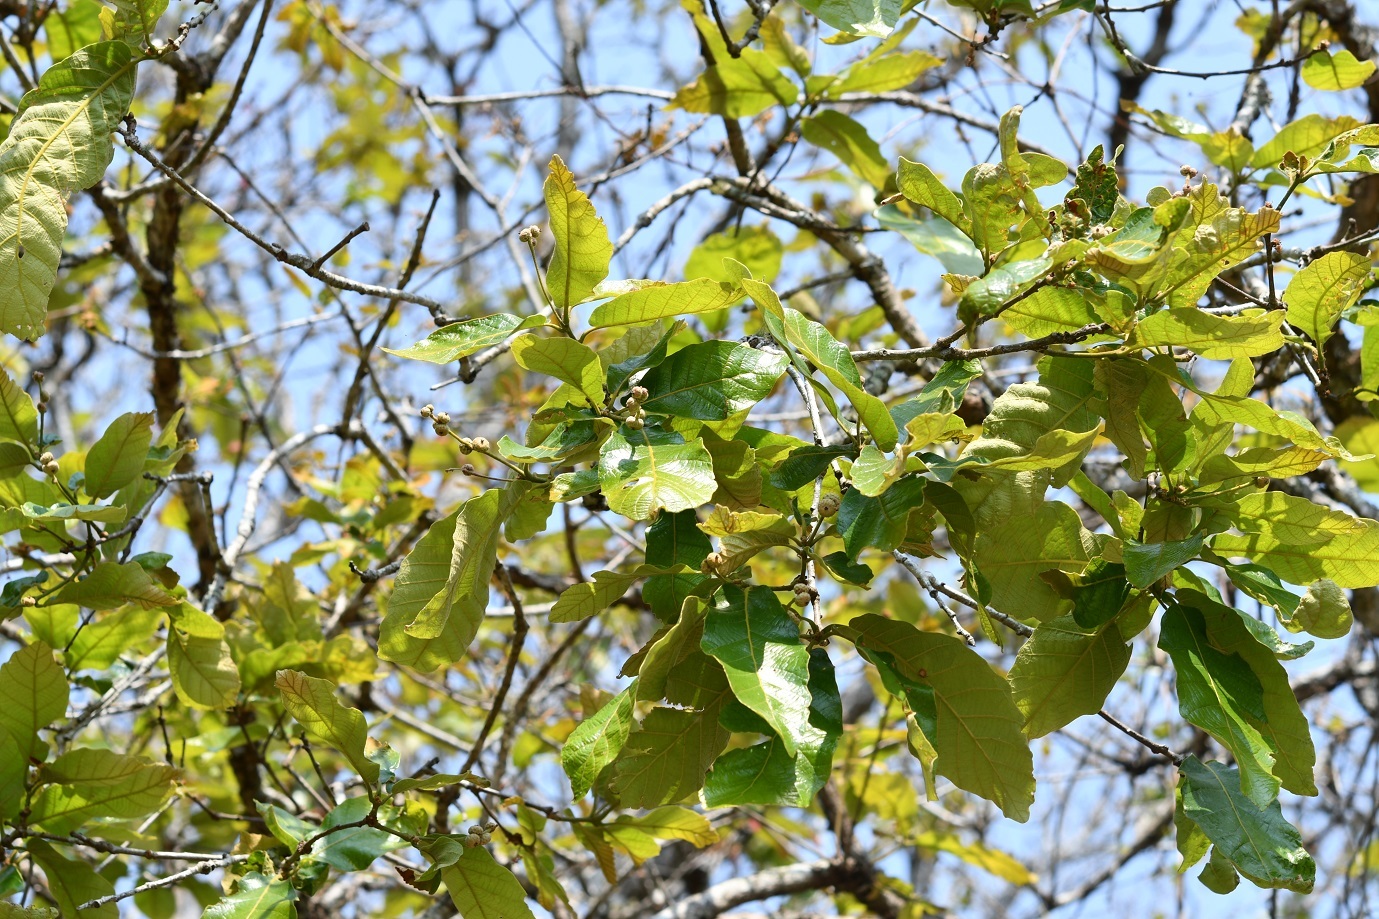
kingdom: Plantae
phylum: Tracheophyta
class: Magnoliopsida
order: Fagales
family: Fagaceae
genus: Quercus
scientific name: Quercus purulhana
